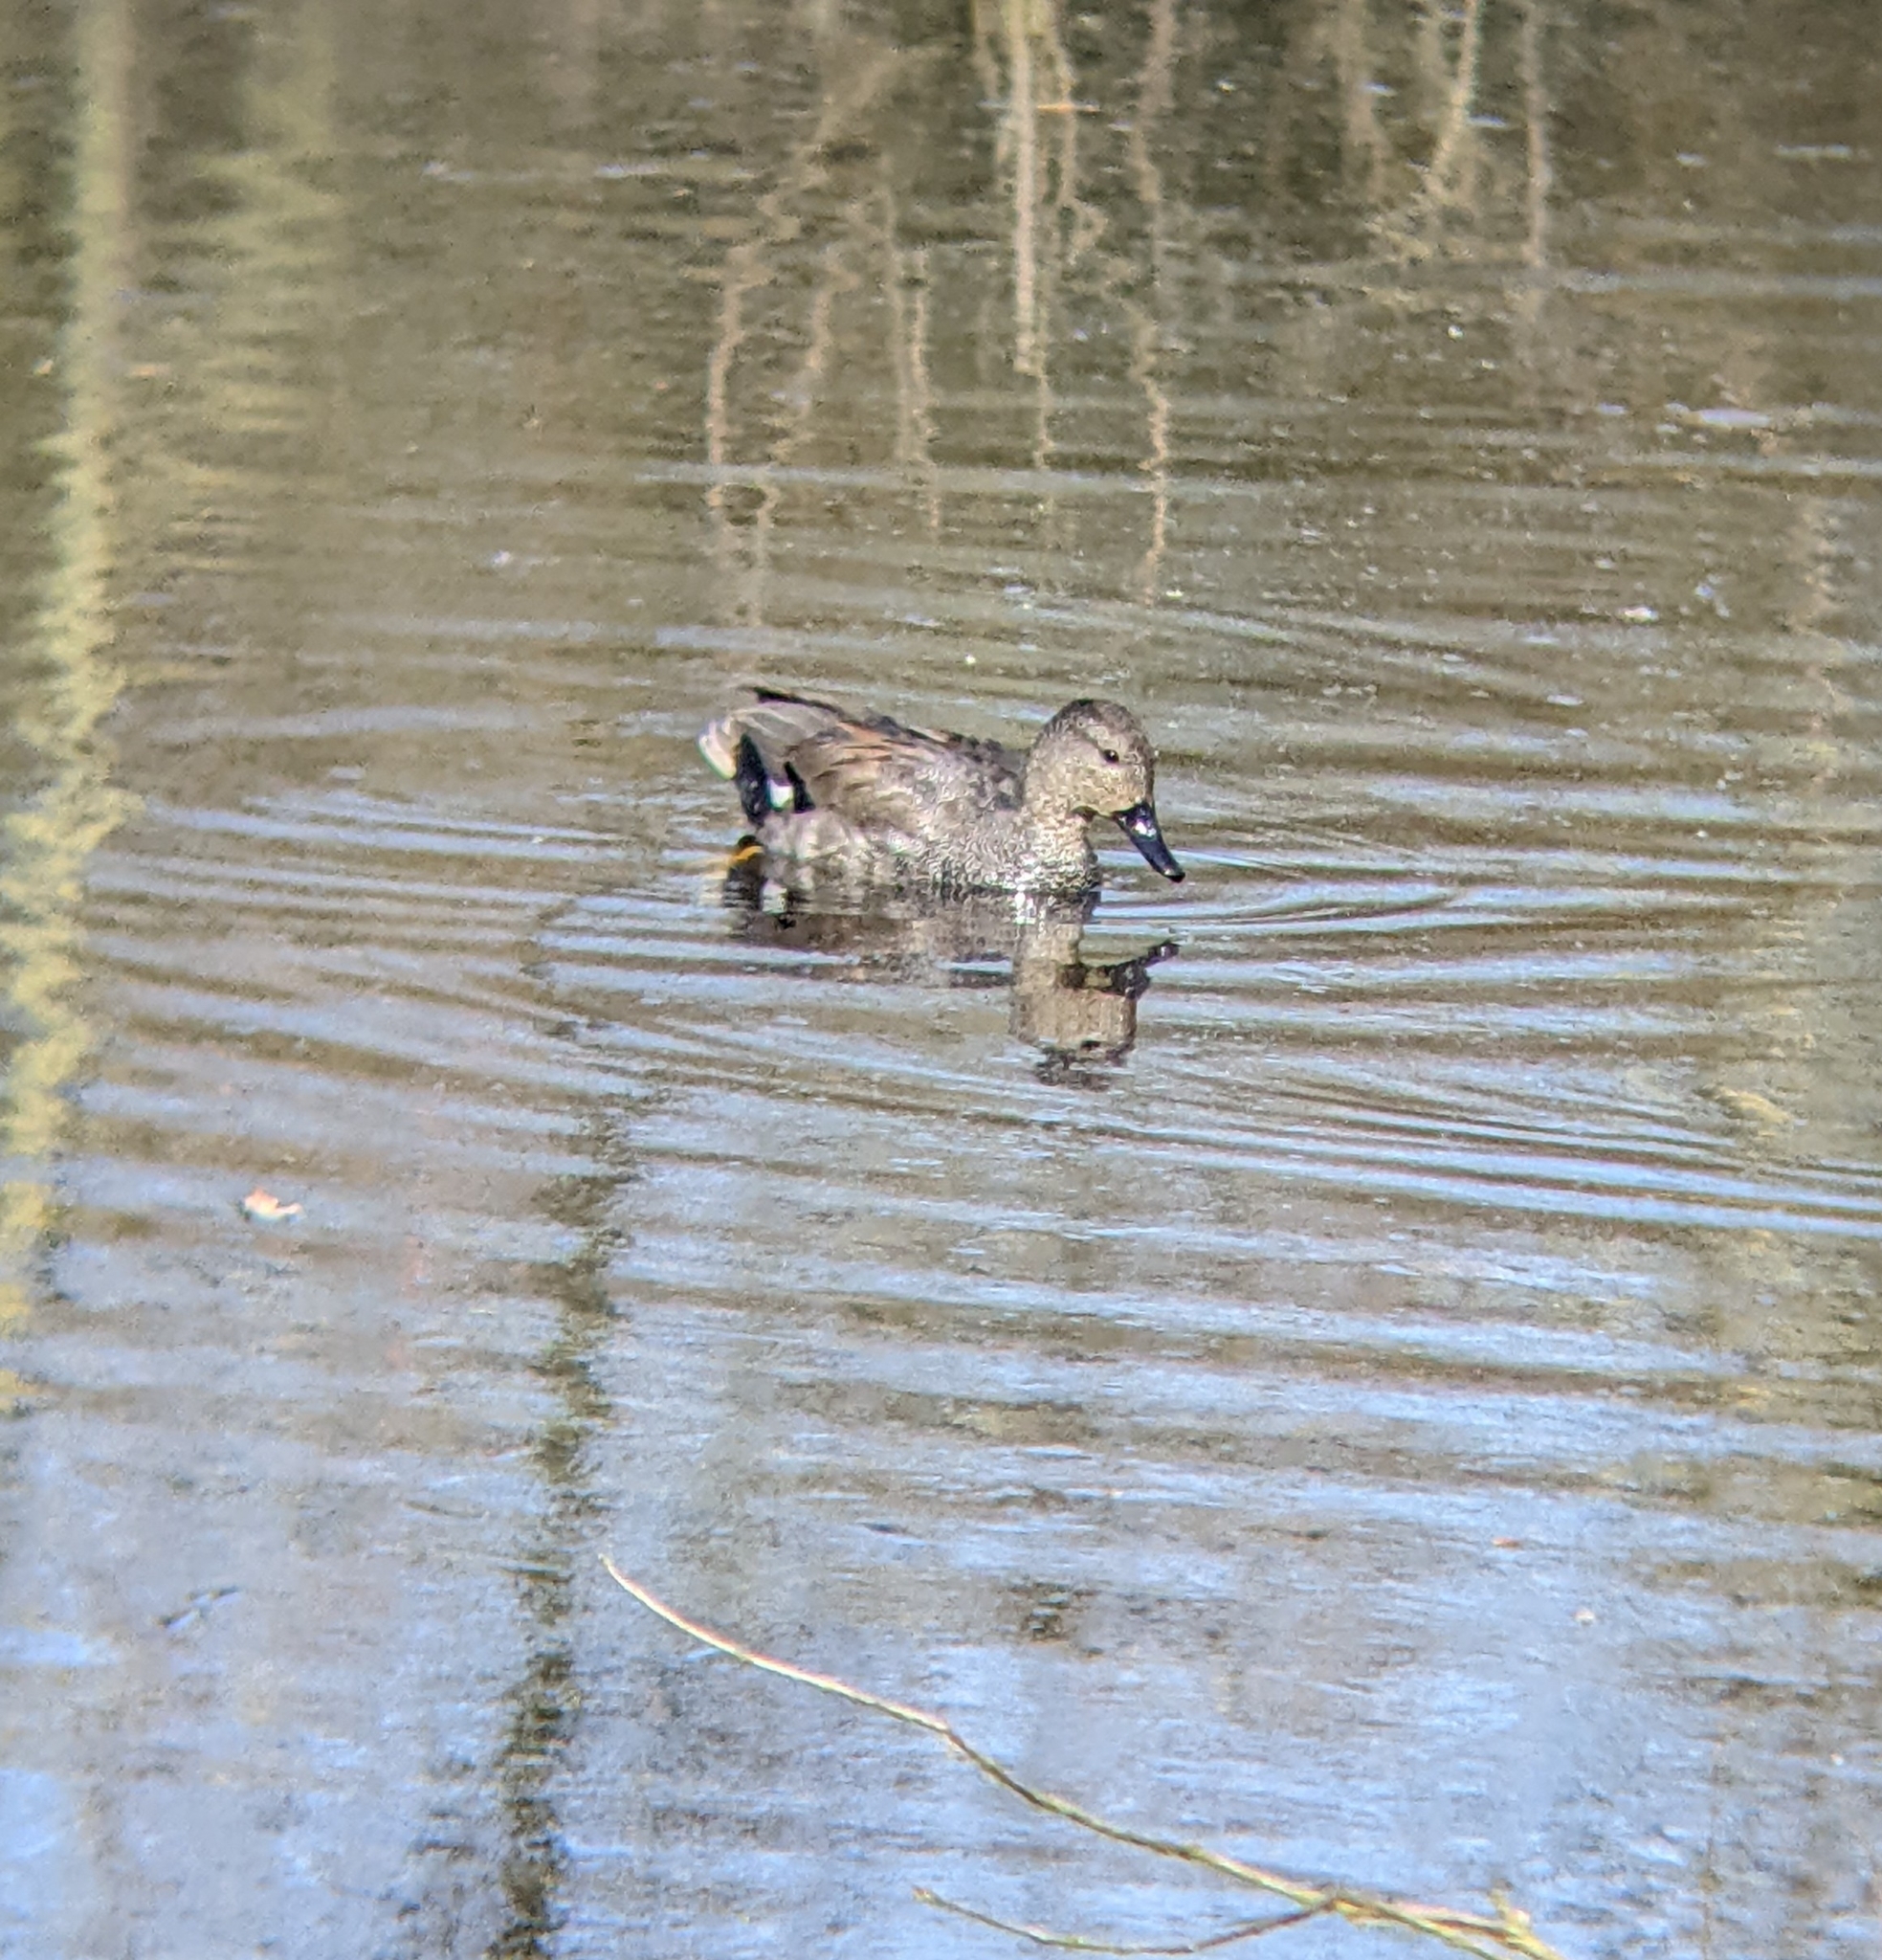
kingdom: Animalia
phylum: Chordata
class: Aves
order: Anseriformes
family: Anatidae
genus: Mareca
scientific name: Mareca strepera
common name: Gadwall
